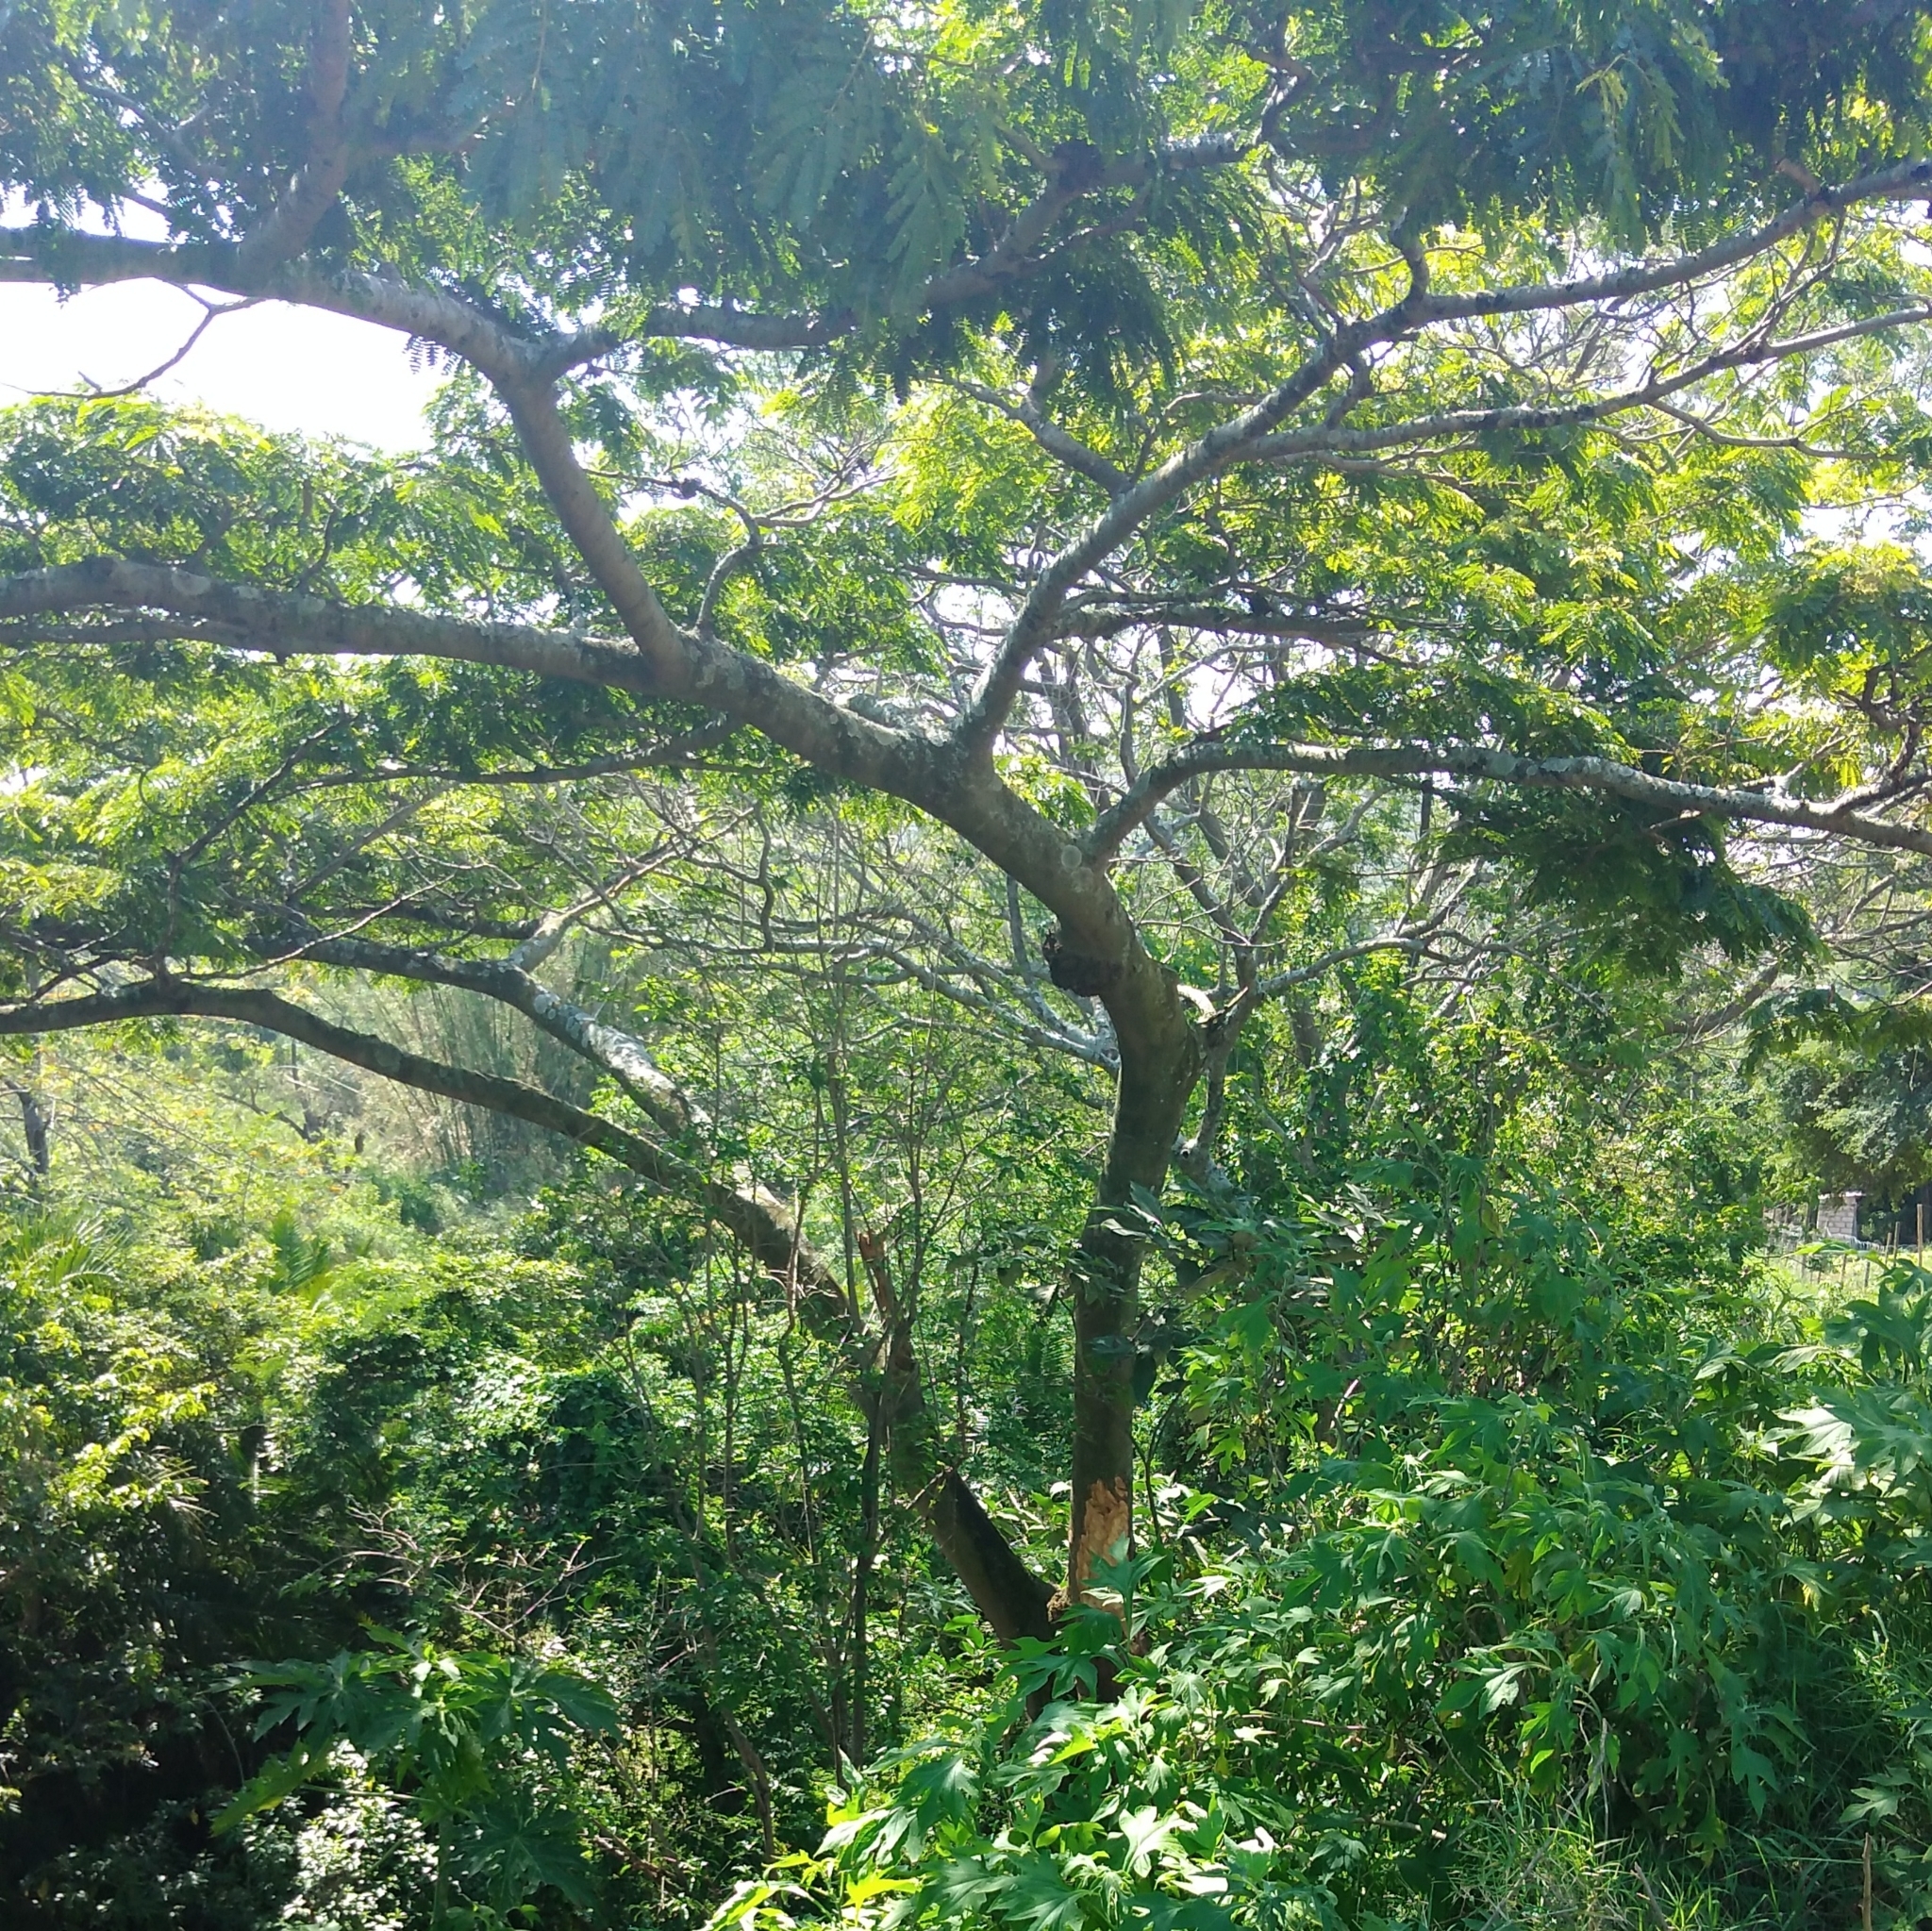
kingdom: Plantae
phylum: Tracheophyta
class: Magnoliopsida
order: Fabales
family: Fabaceae
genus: Albizia
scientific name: Albizia adianthifolia
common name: West african albizia
